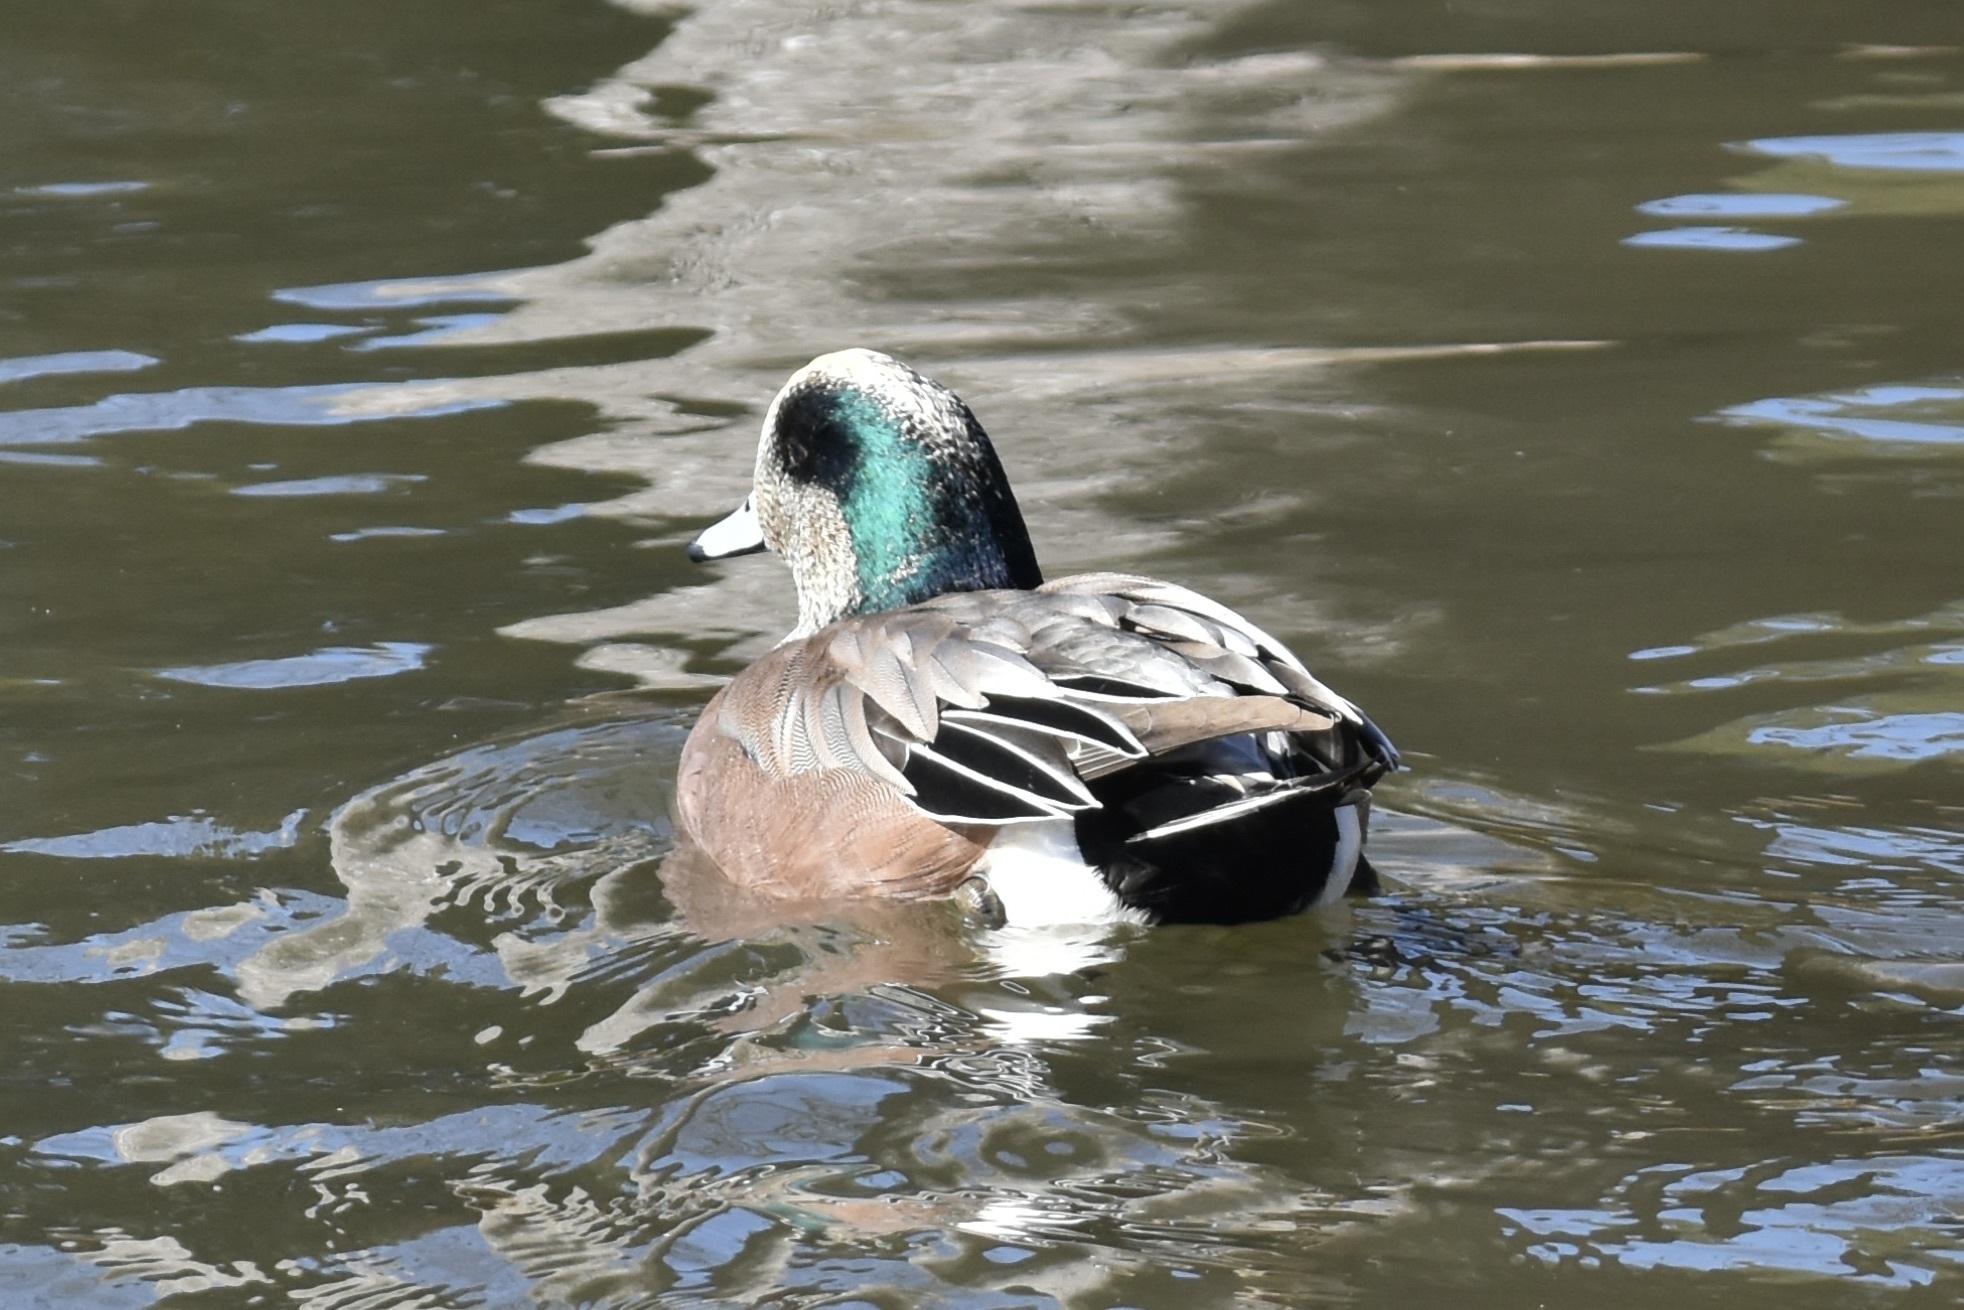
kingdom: Animalia
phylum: Chordata
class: Aves
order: Anseriformes
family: Anatidae
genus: Mareca
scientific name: Mareca americana
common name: American wigeon
